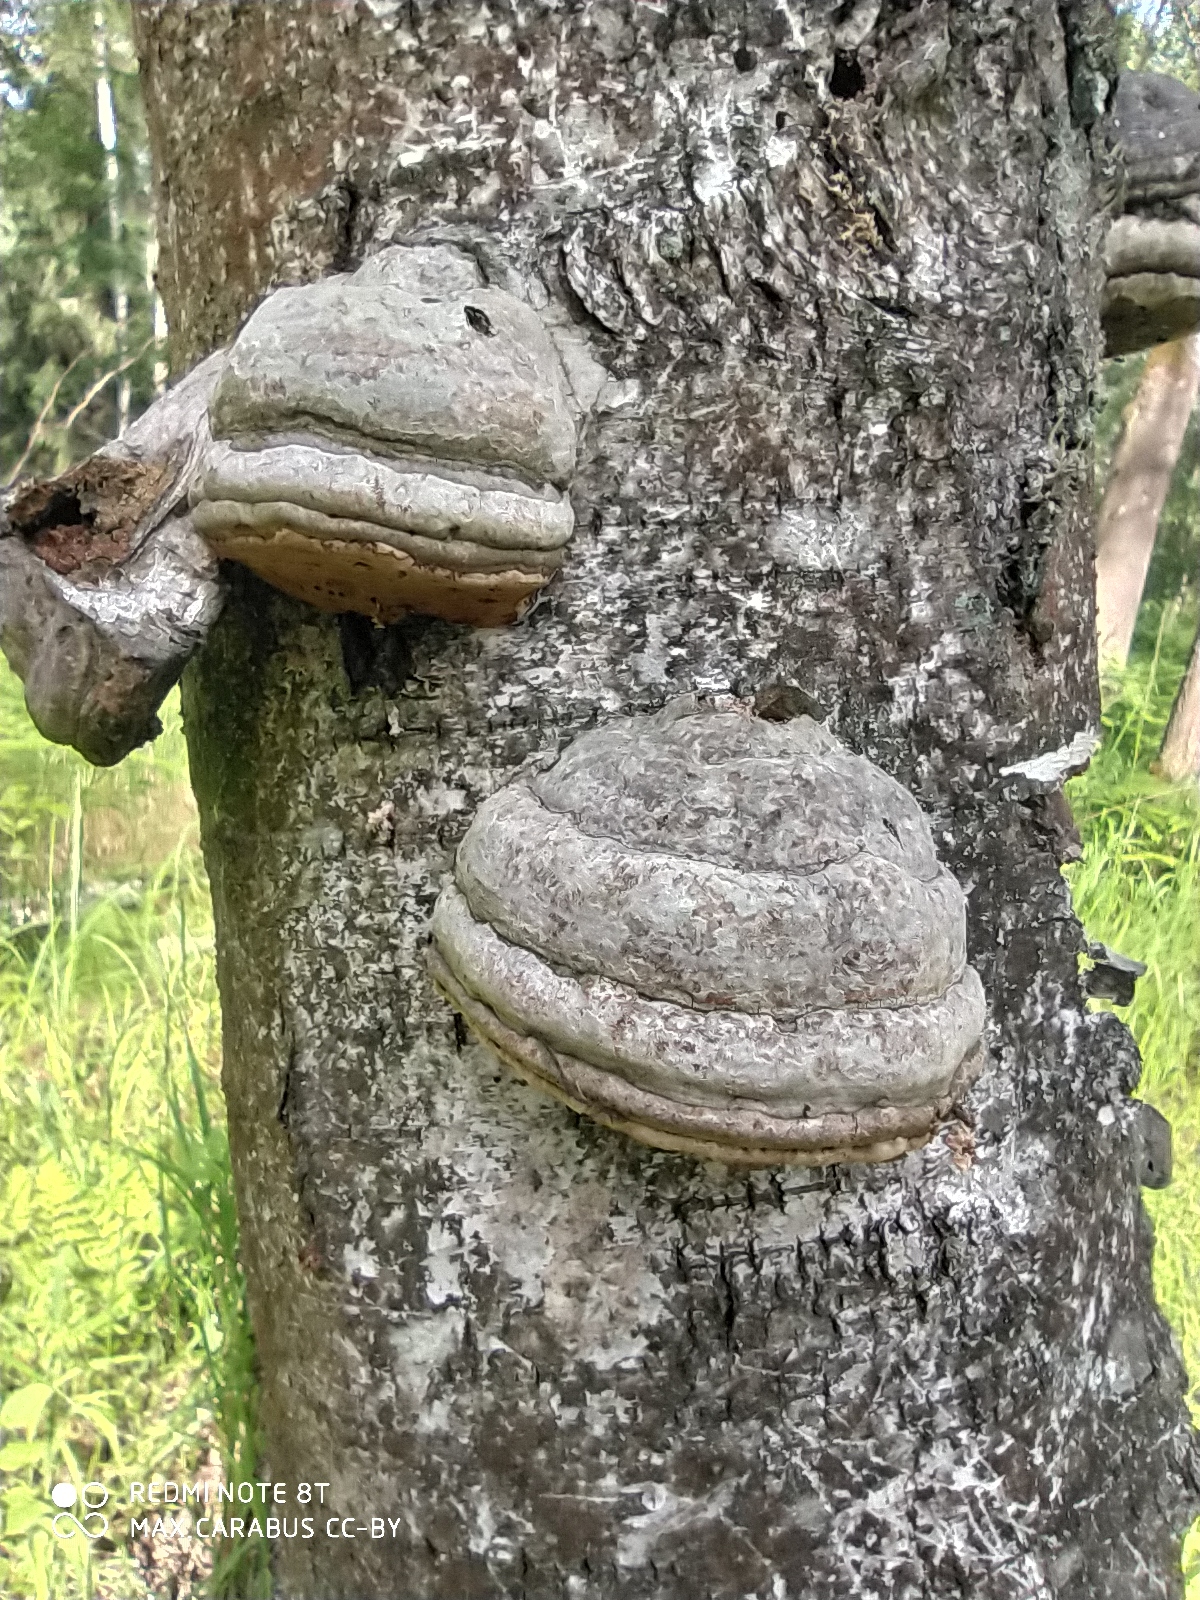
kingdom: Fungi
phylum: Basidiomycota
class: Agaricomycetes
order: Polyporales
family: Polyporaceae
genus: Fomes
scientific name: Fomes fomentarius
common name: Hoof fungus
